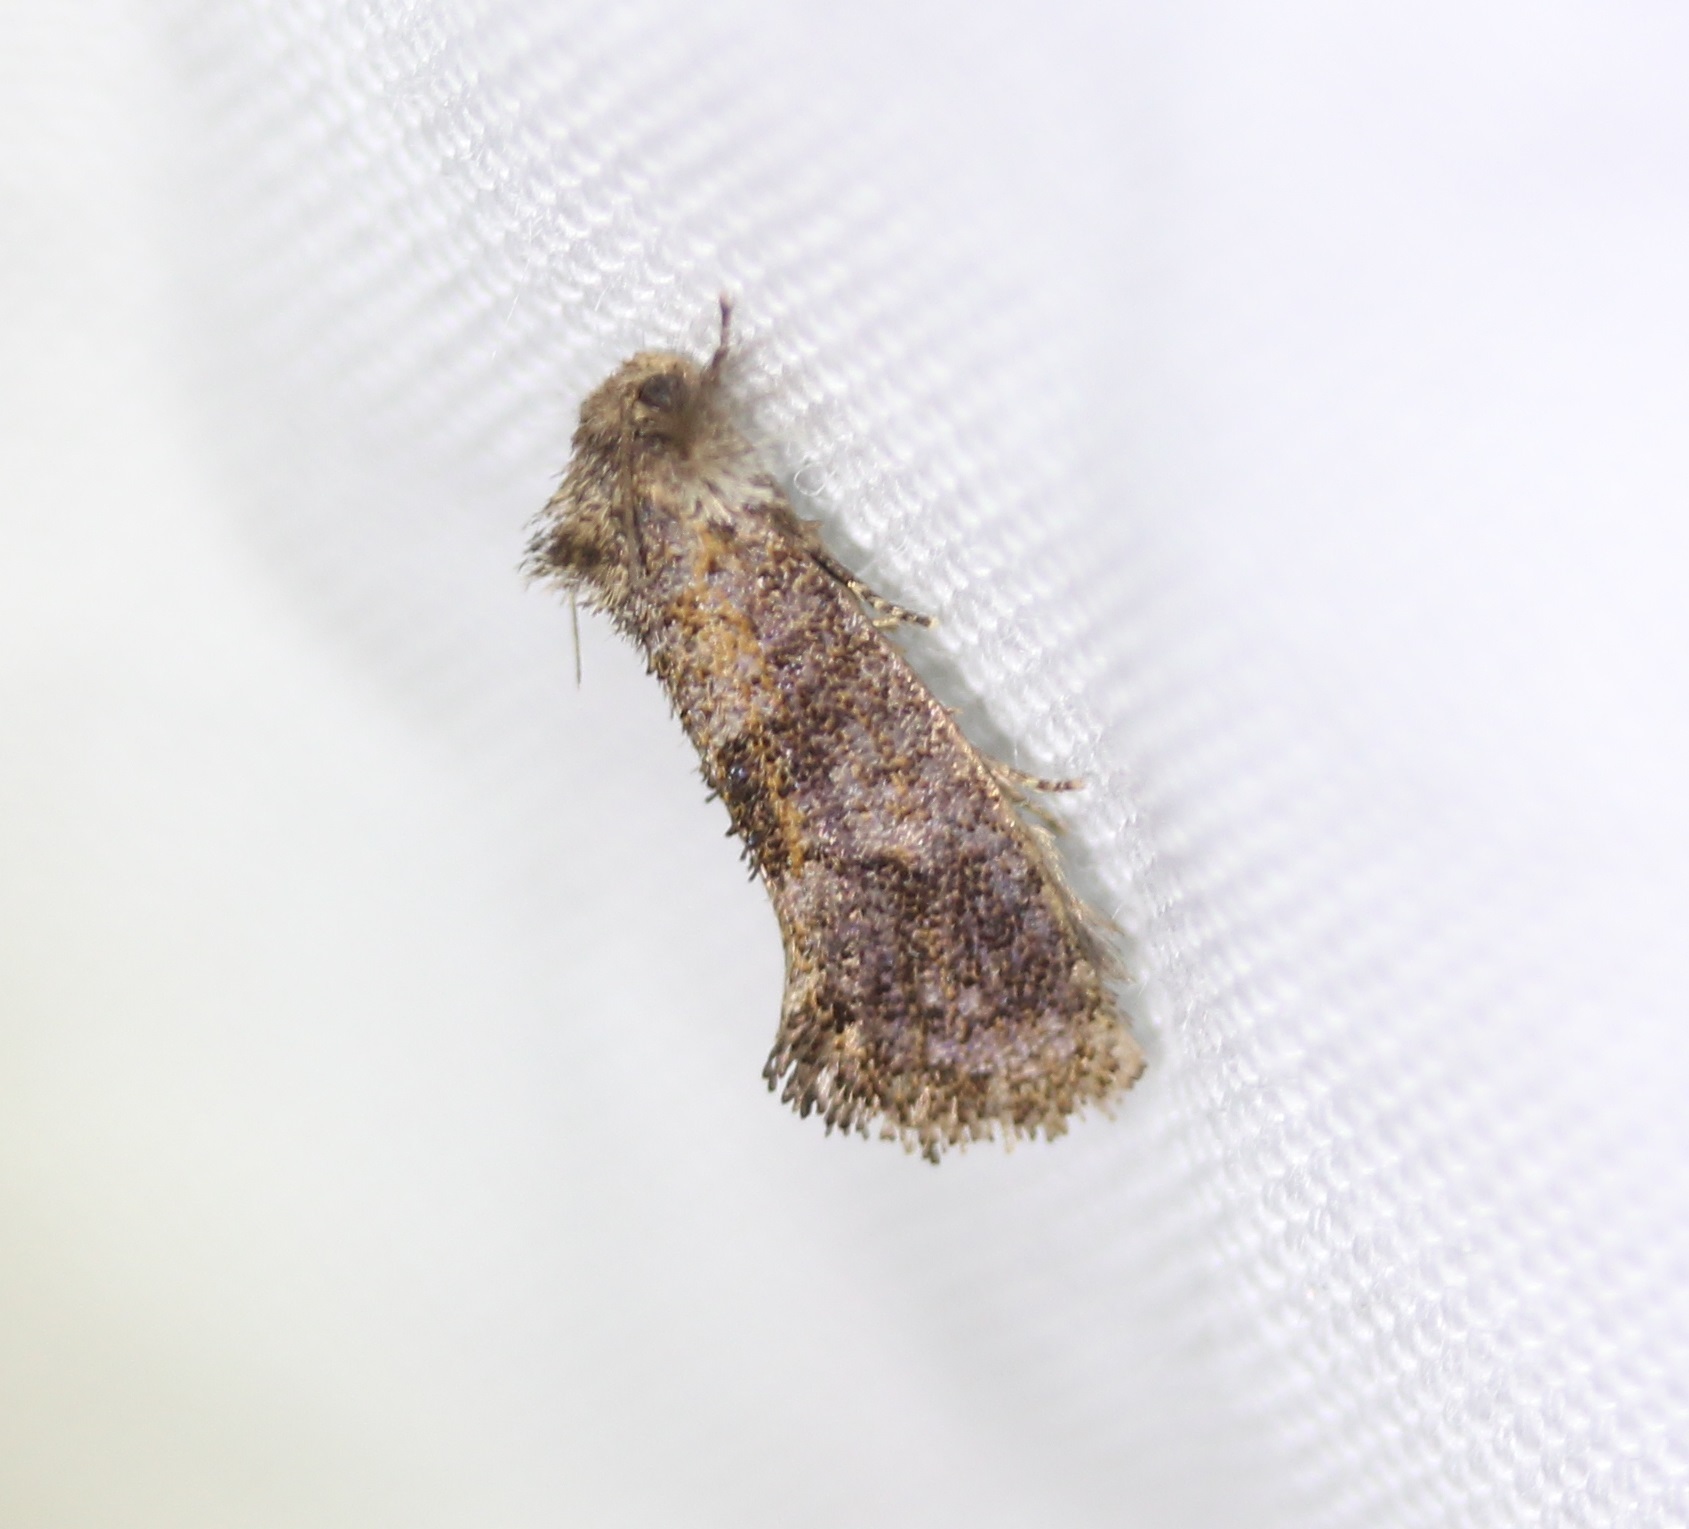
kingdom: Animalia
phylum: Arthropoda
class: Insecta
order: Lepidoptera
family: Tineidae
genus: Acrolophus
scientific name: Acrolophus panamae
